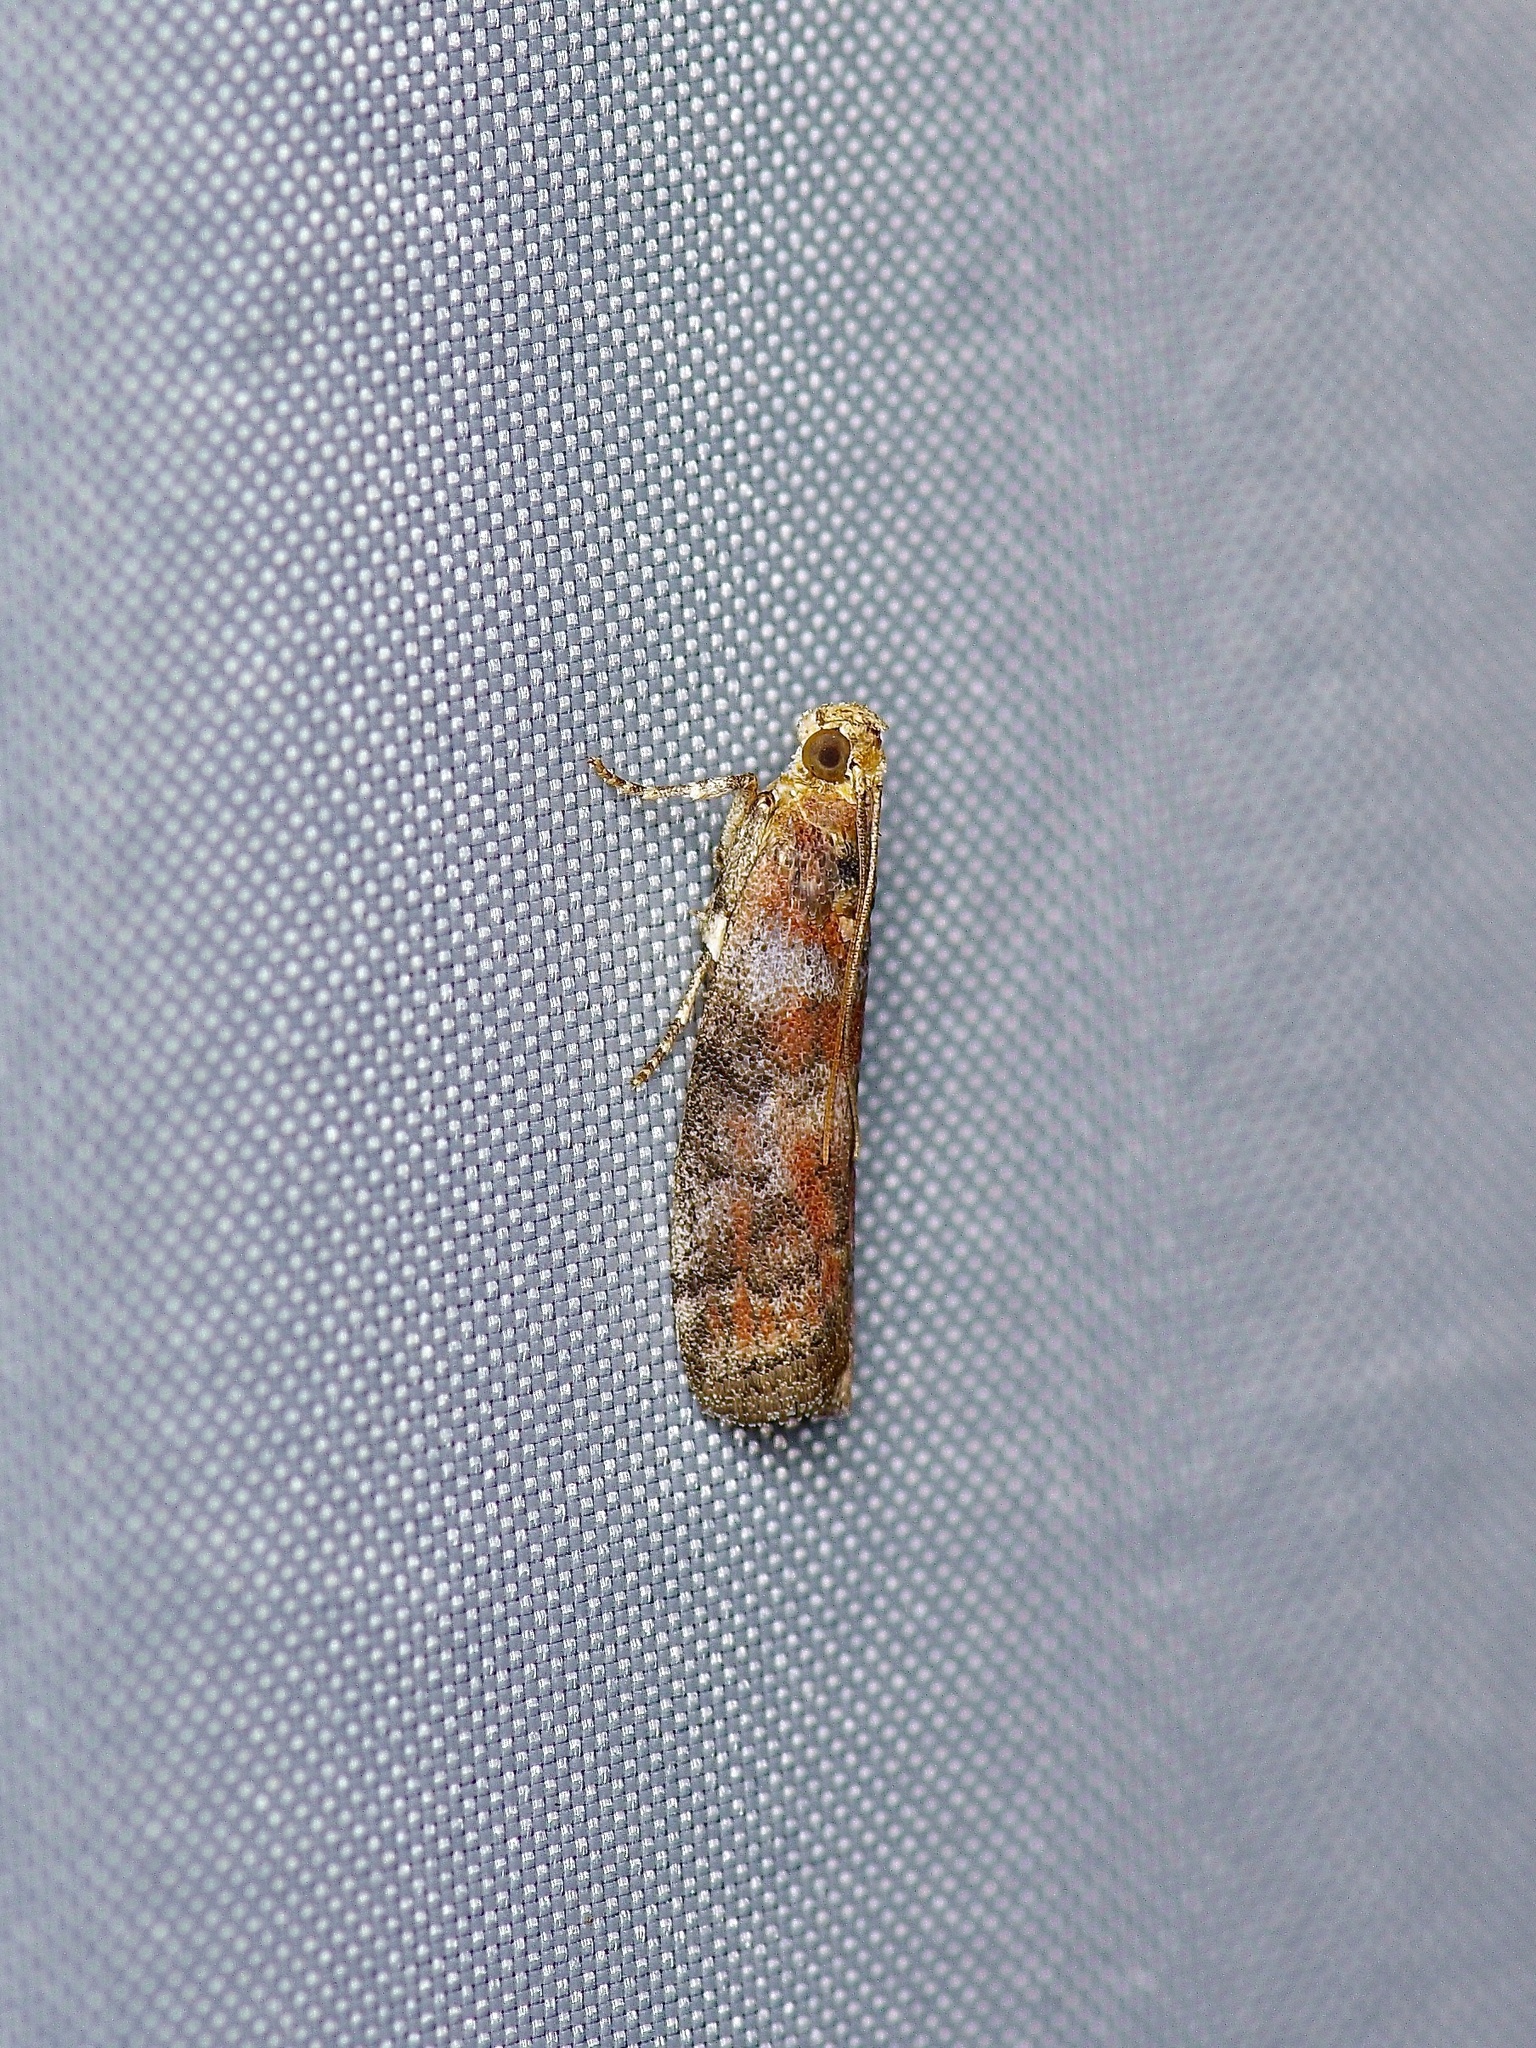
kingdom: Animalia
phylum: Arthropoda
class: Insecta
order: Lepidoptera
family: Pyralidae
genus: Sciota
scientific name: Sciota
